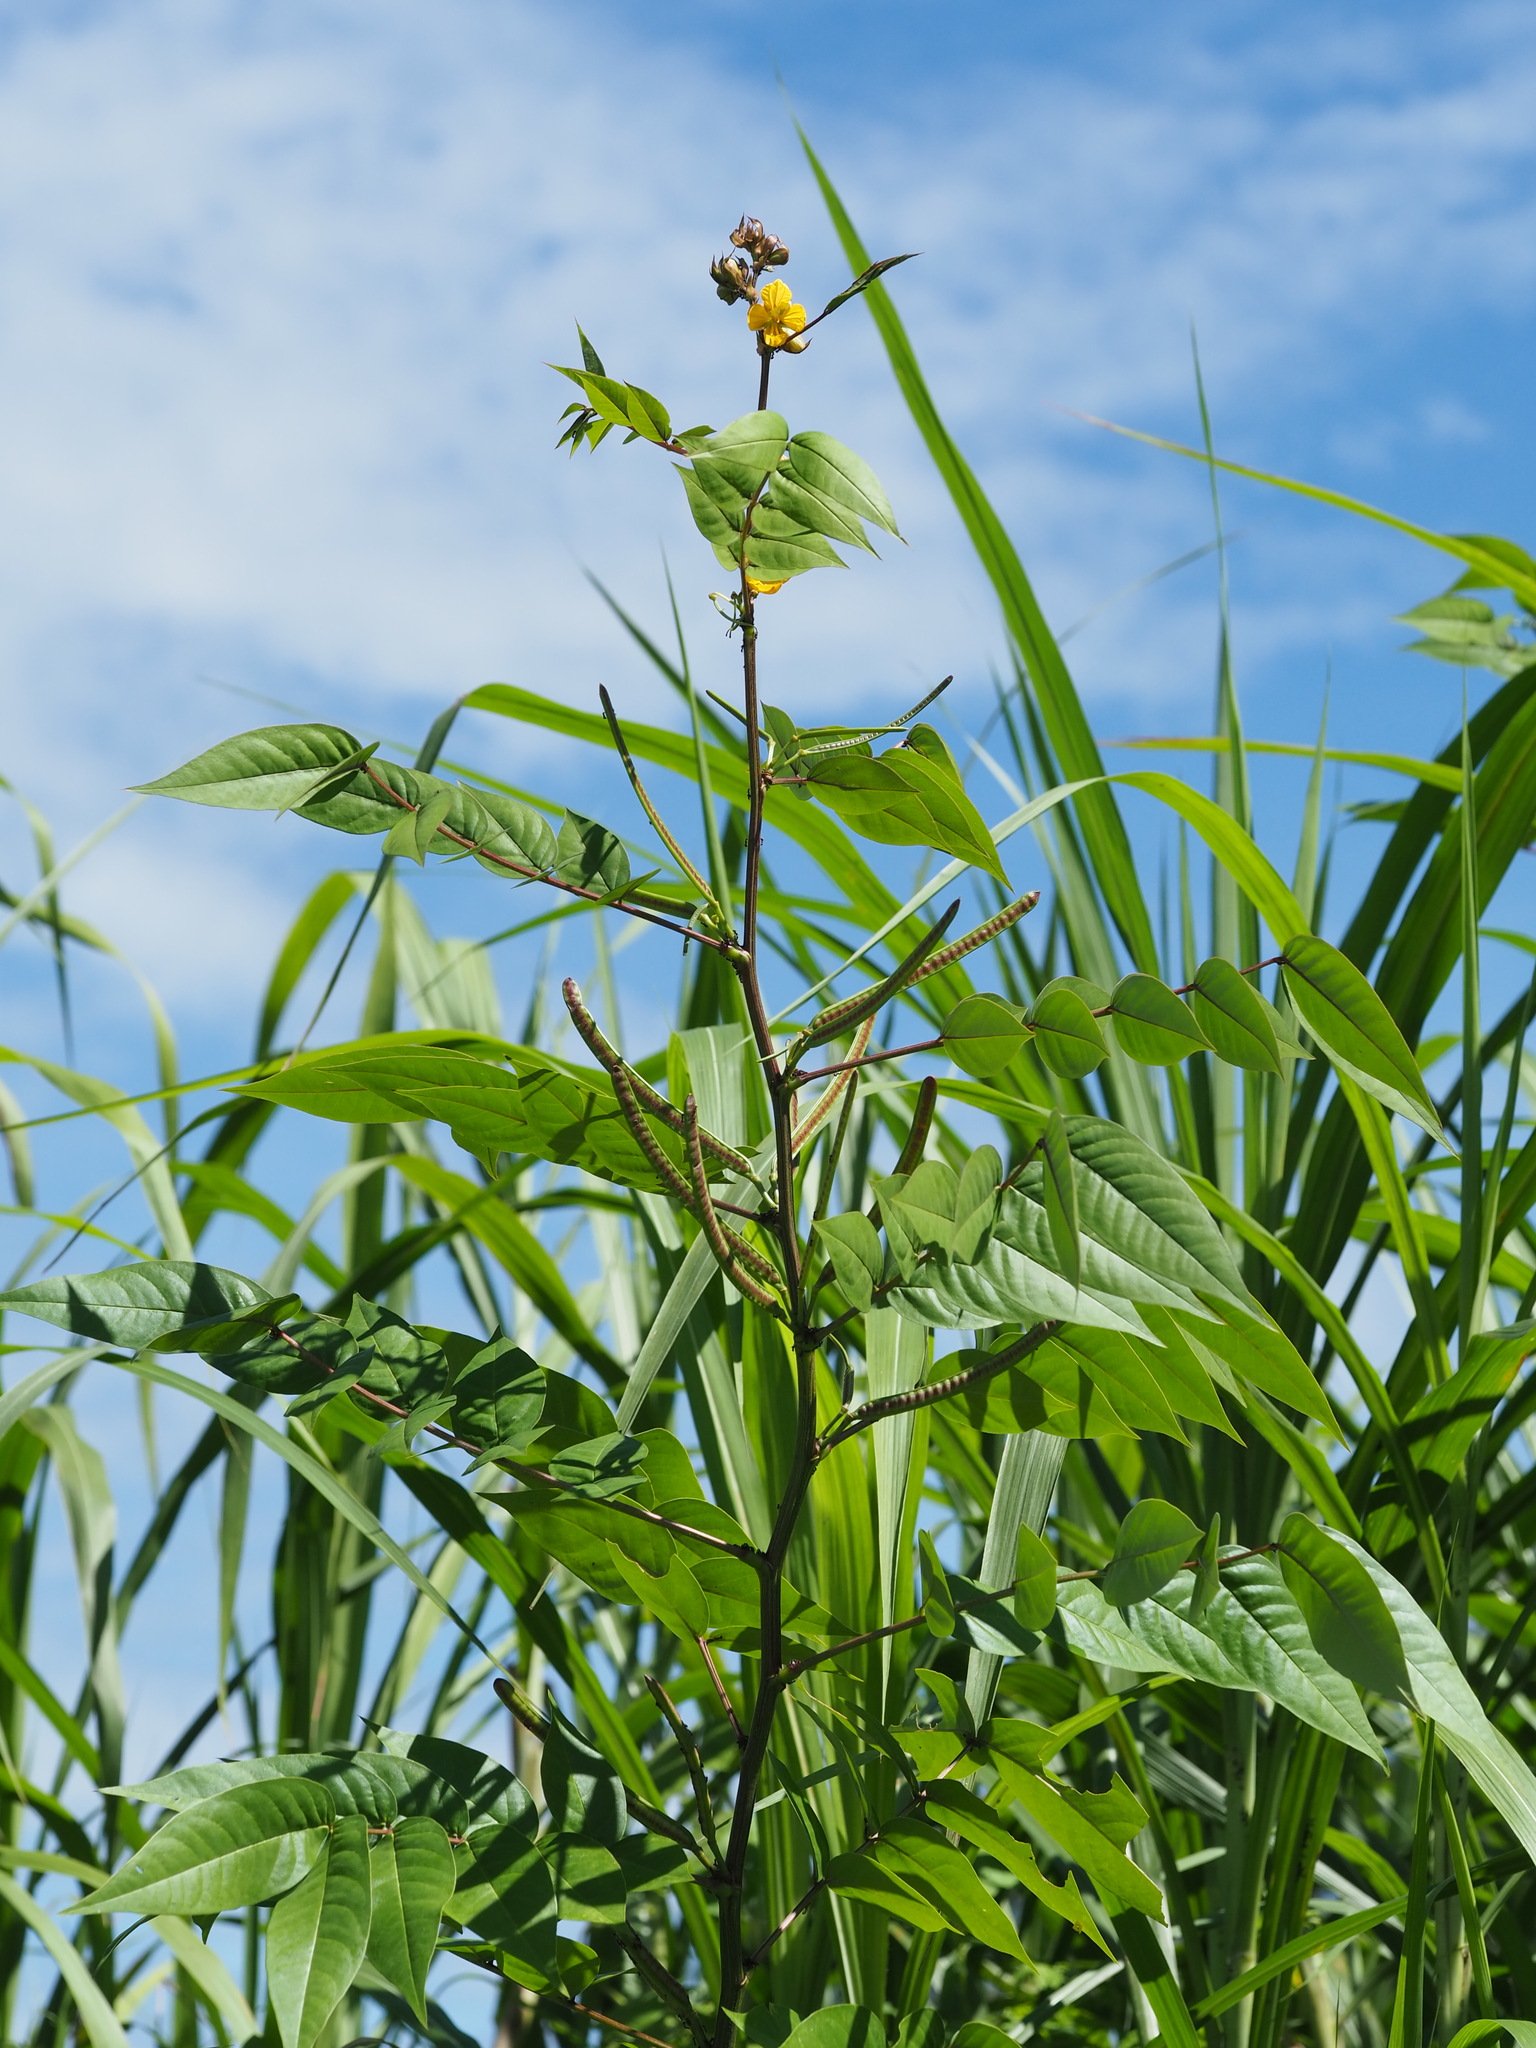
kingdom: Plantae
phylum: Tracheophyta
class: Magnoliopsida
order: Fabales
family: Fabaceae
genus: Senna
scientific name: Senna occidentalis
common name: Septicweed
